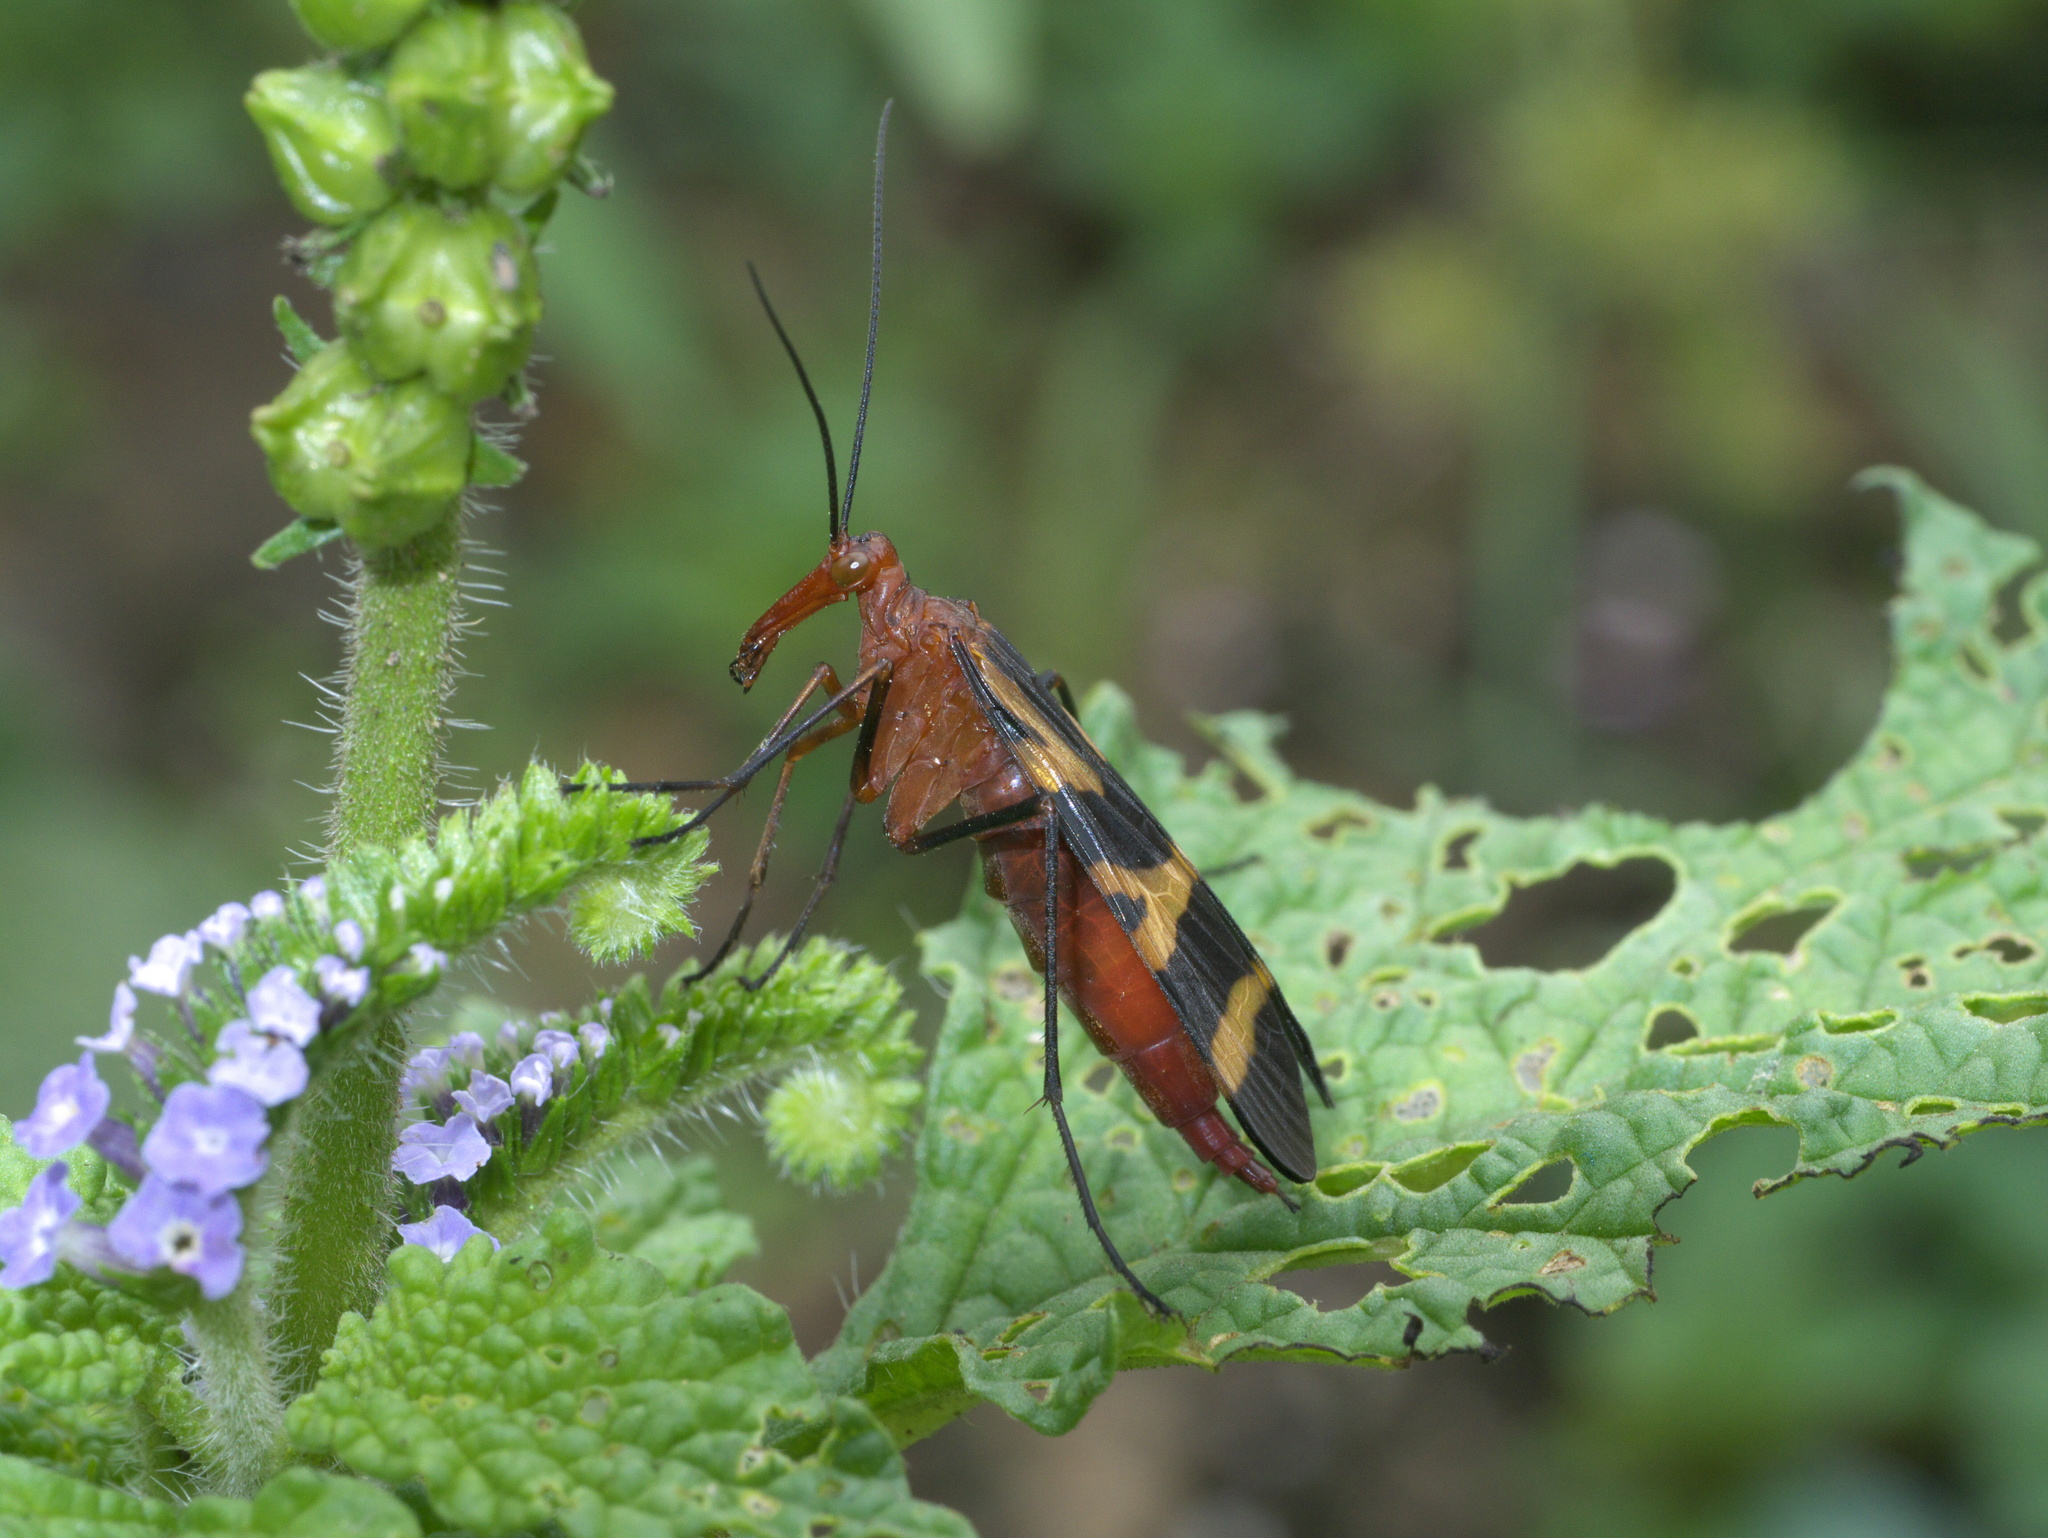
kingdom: Animalia
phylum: Arthropoda
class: Insecta
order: Mecoptera
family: Panorpidae
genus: Panorpa
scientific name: Panorpa nuptialis
